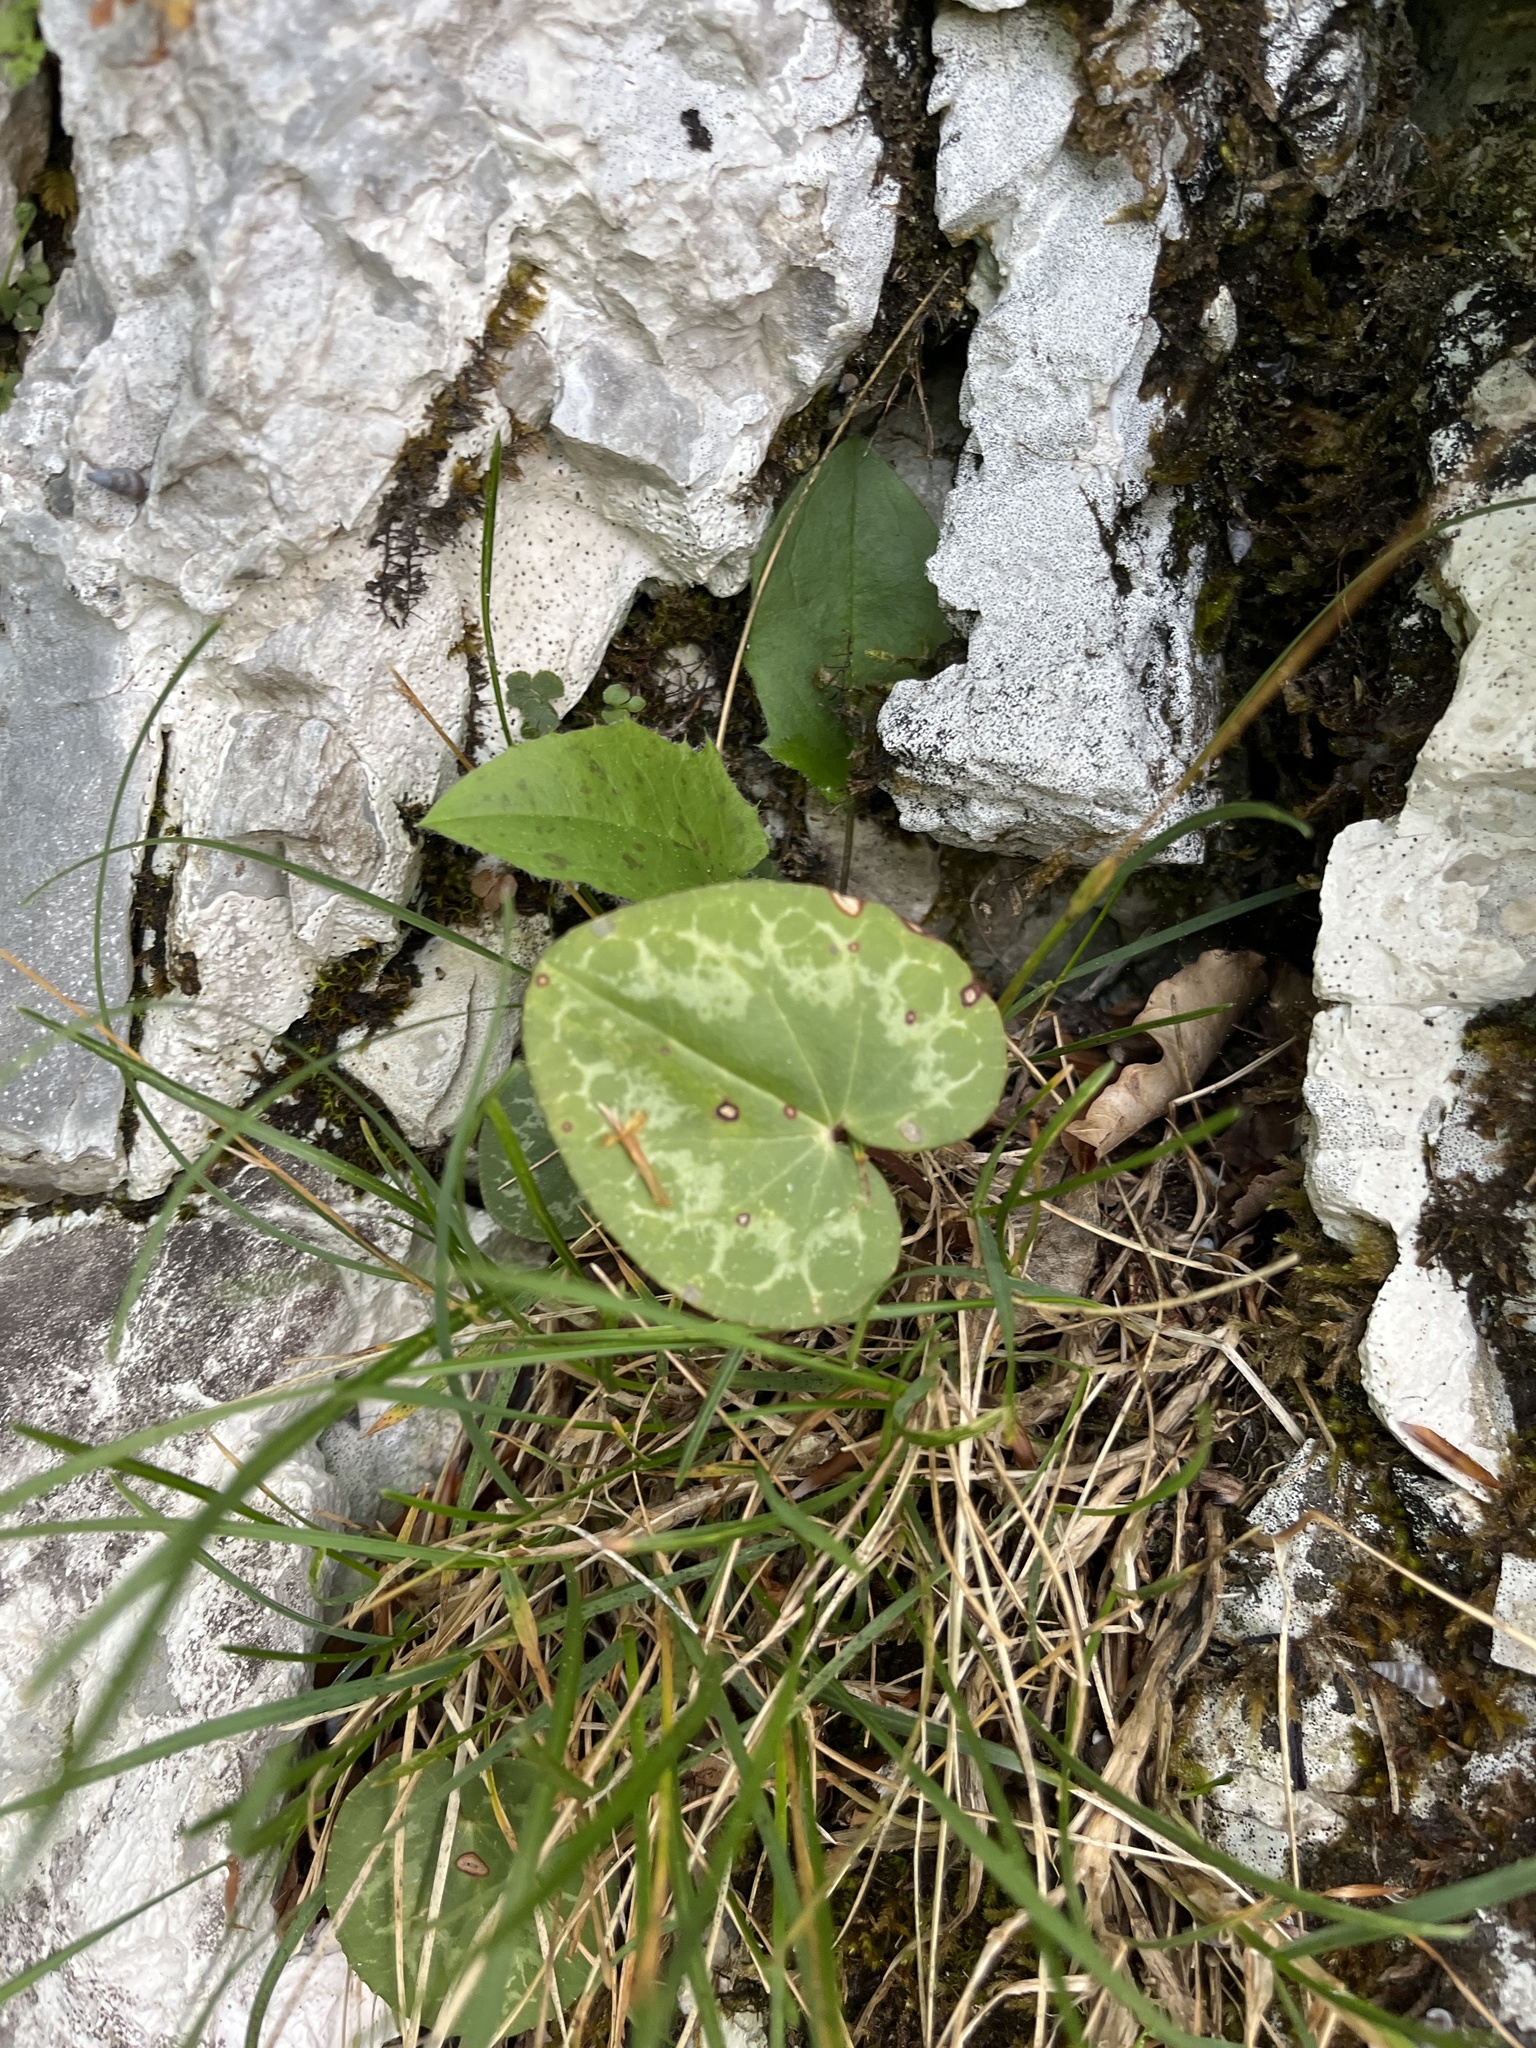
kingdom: Plantae
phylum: Tracheophyta
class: Magnoliopsida
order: Ericales
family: Primulaceae
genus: Cyclamen
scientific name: Cyclamen purpurascens
